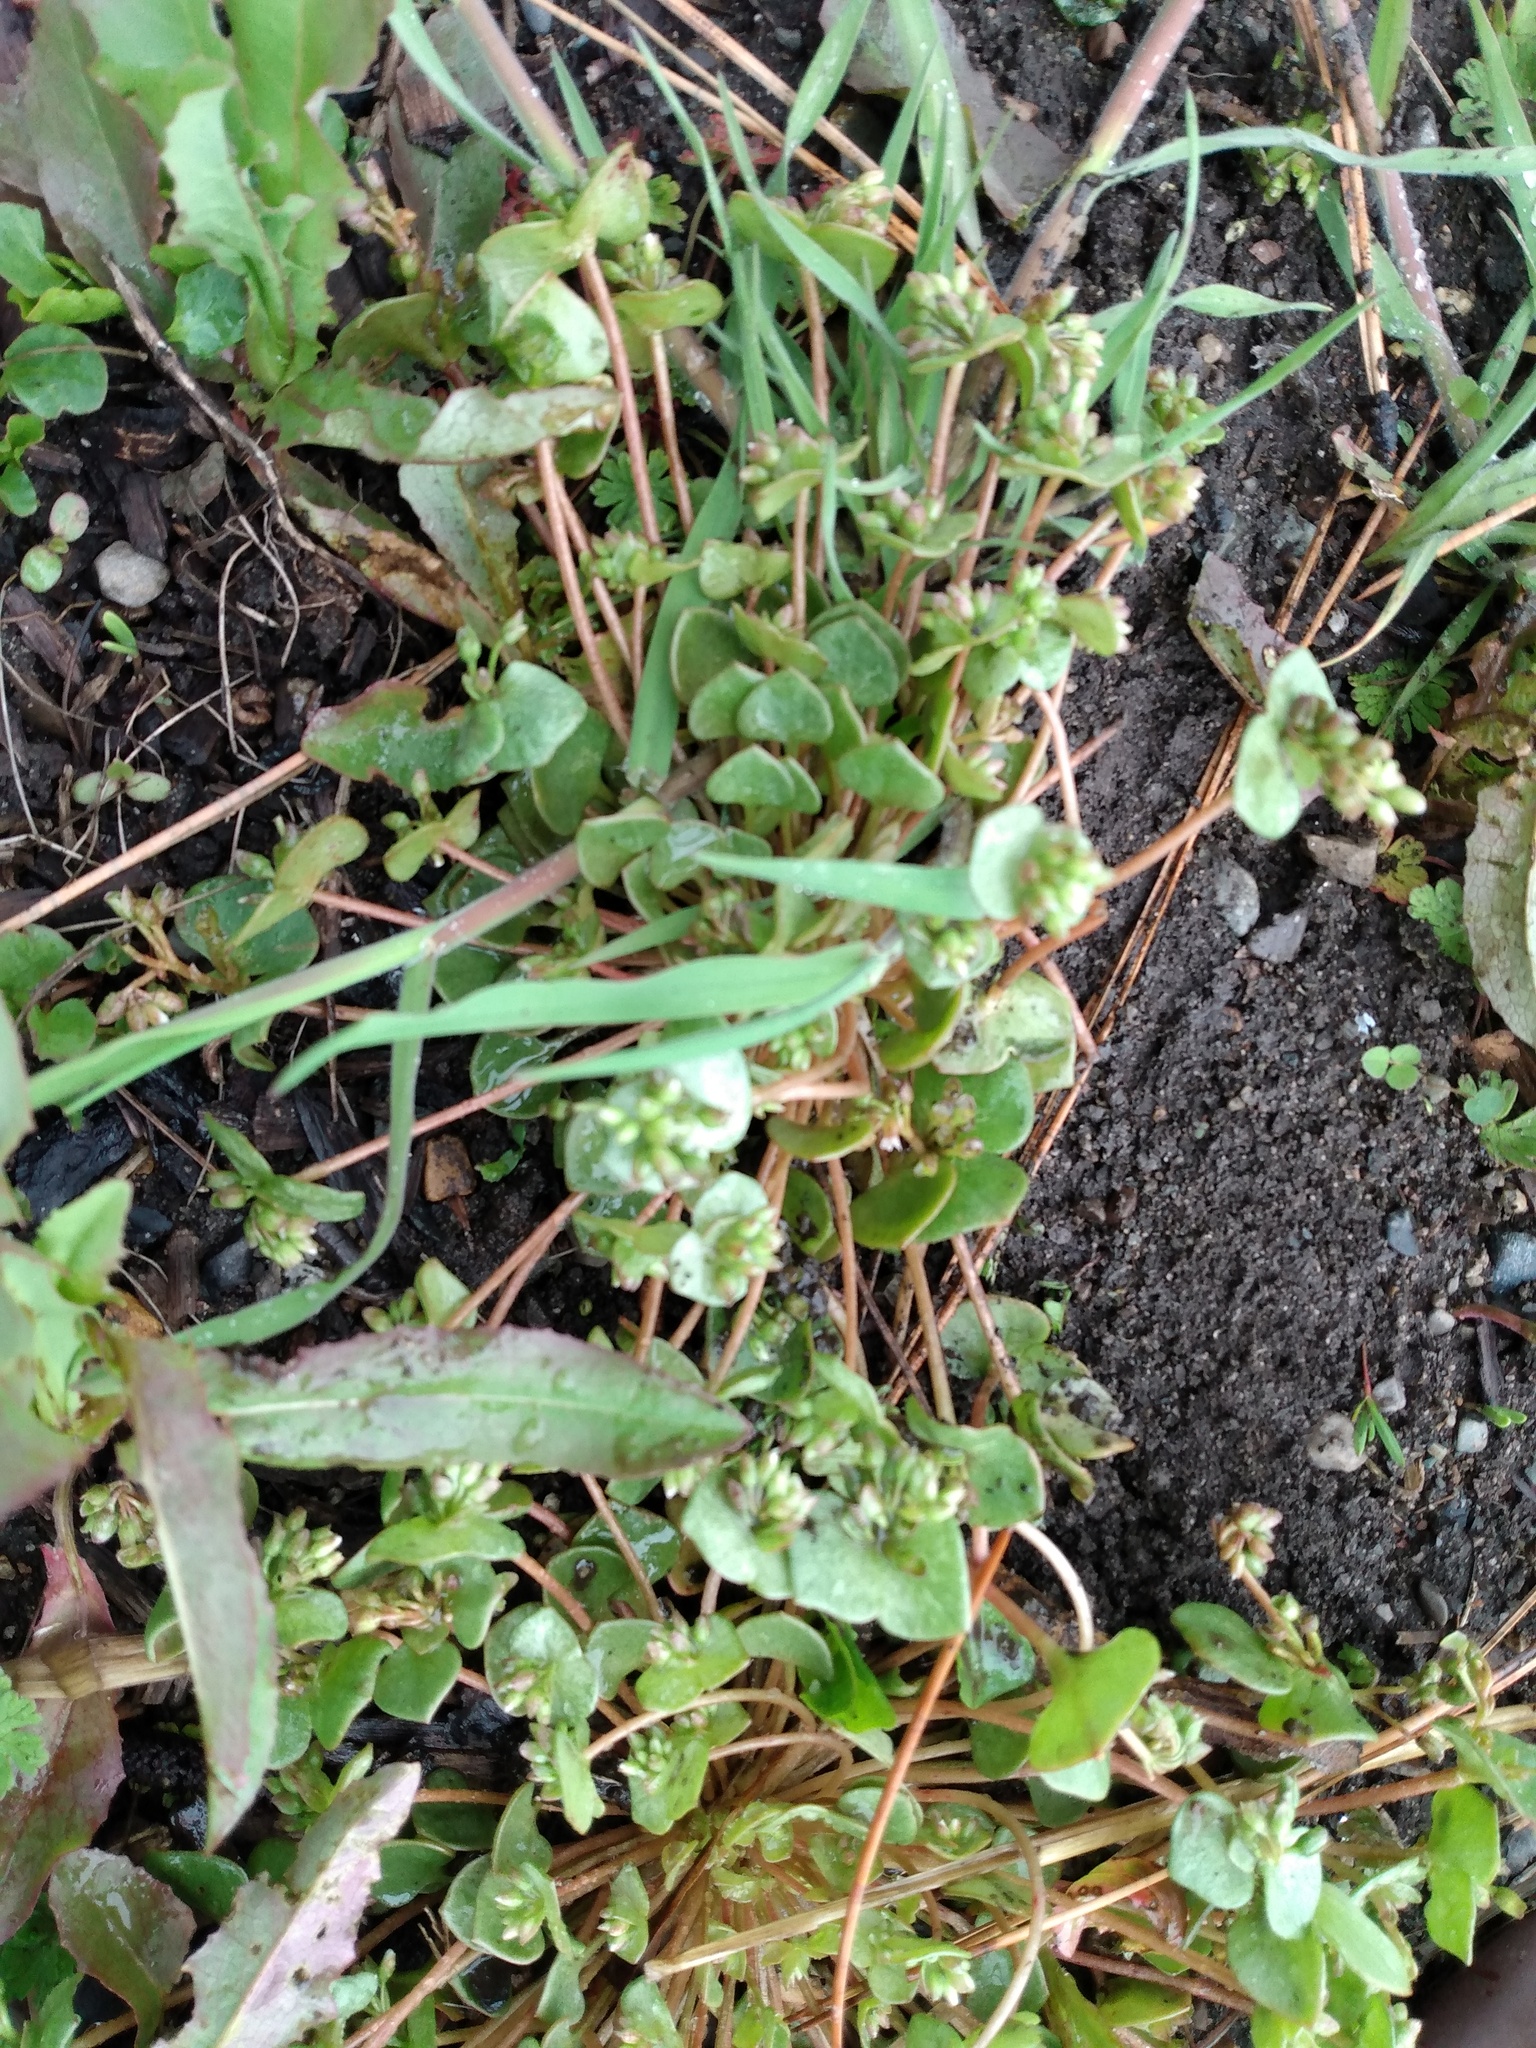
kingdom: Plantae
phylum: Tracheophyta
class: Magnoliopsida
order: Caryophyllales
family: Montiaceae
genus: Claytonia
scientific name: Claytonia rubra
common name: Erubescent miner's-lettuce
